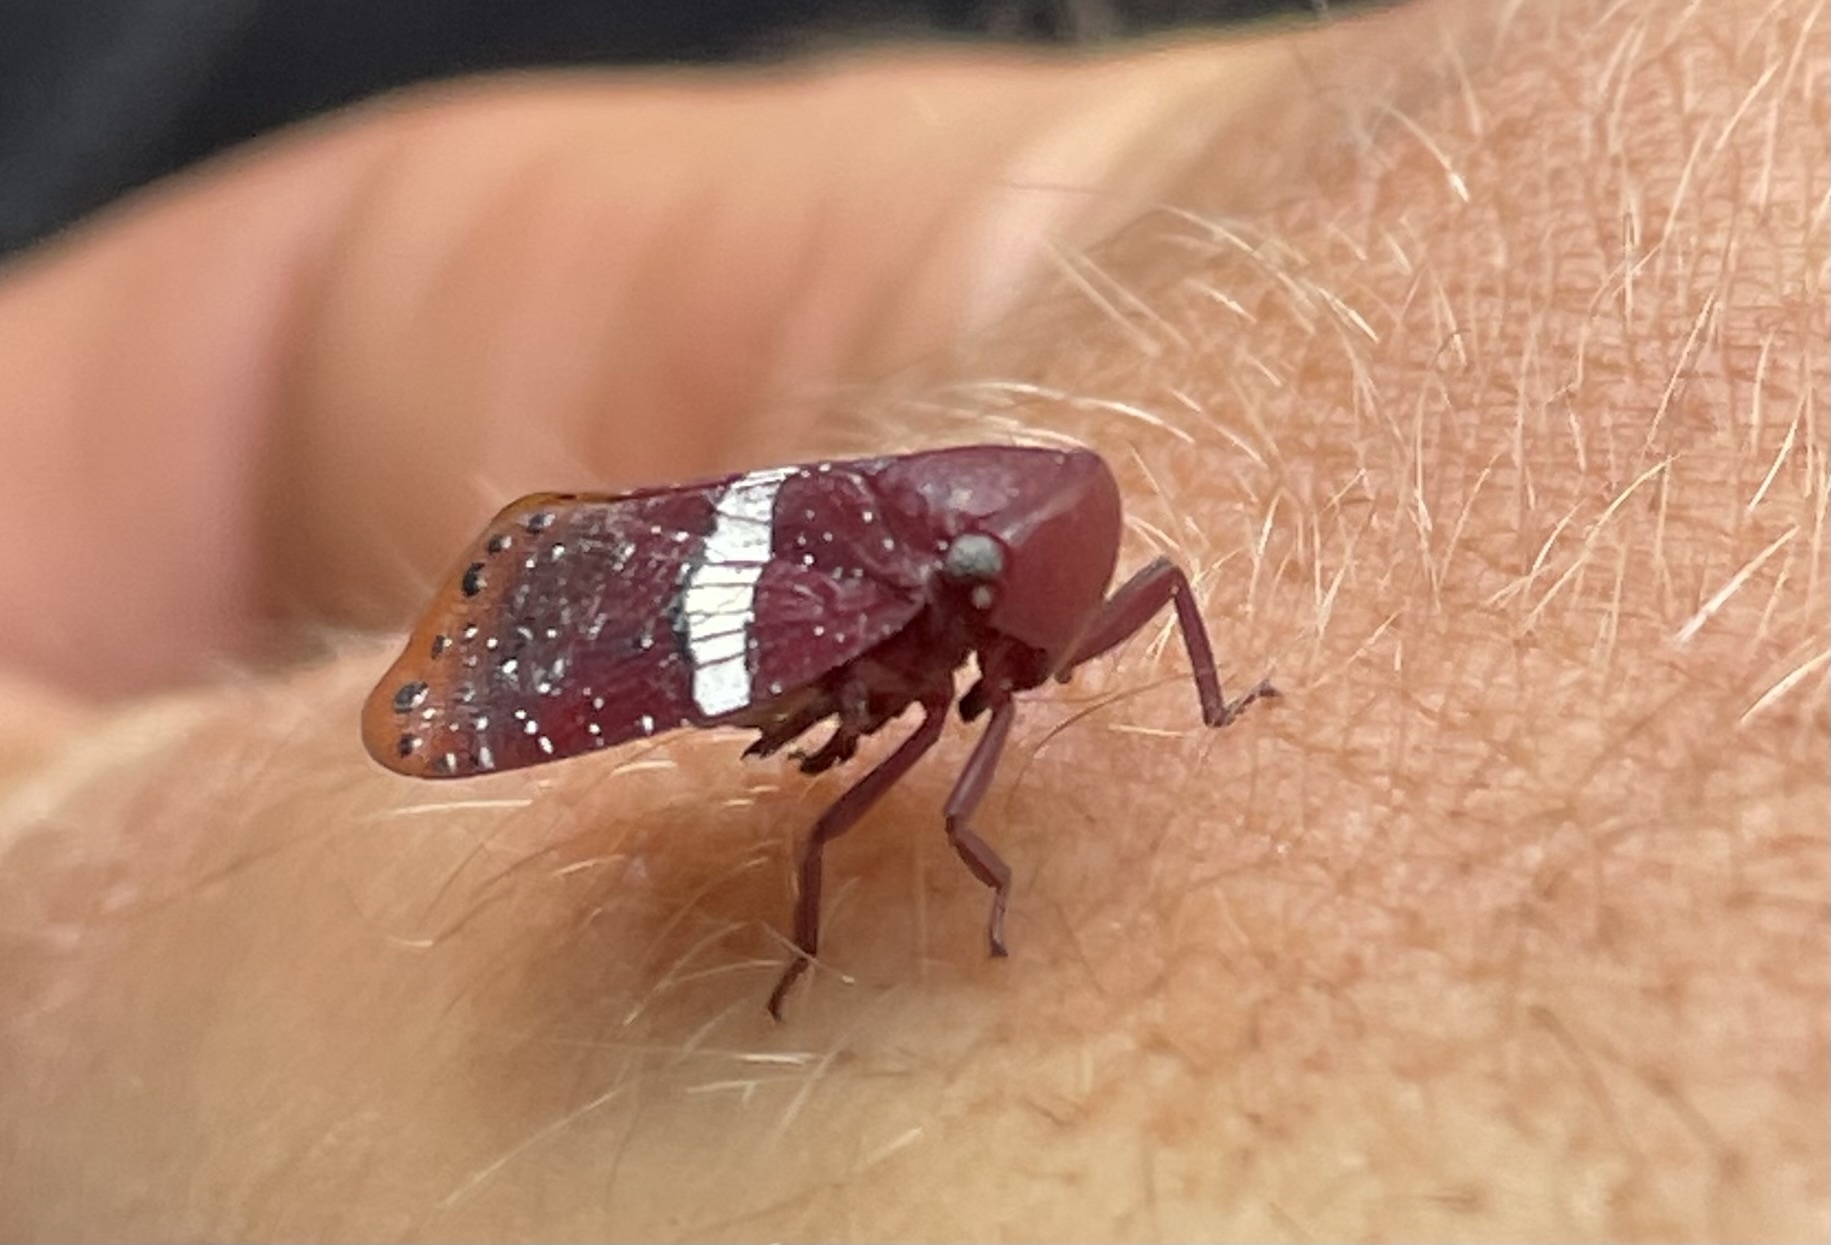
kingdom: Animalia
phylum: Arthropoda
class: Insecta
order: Hemiptera
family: Eurybrachidae
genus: Mesonitys
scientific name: Mesonitys fulleborni
